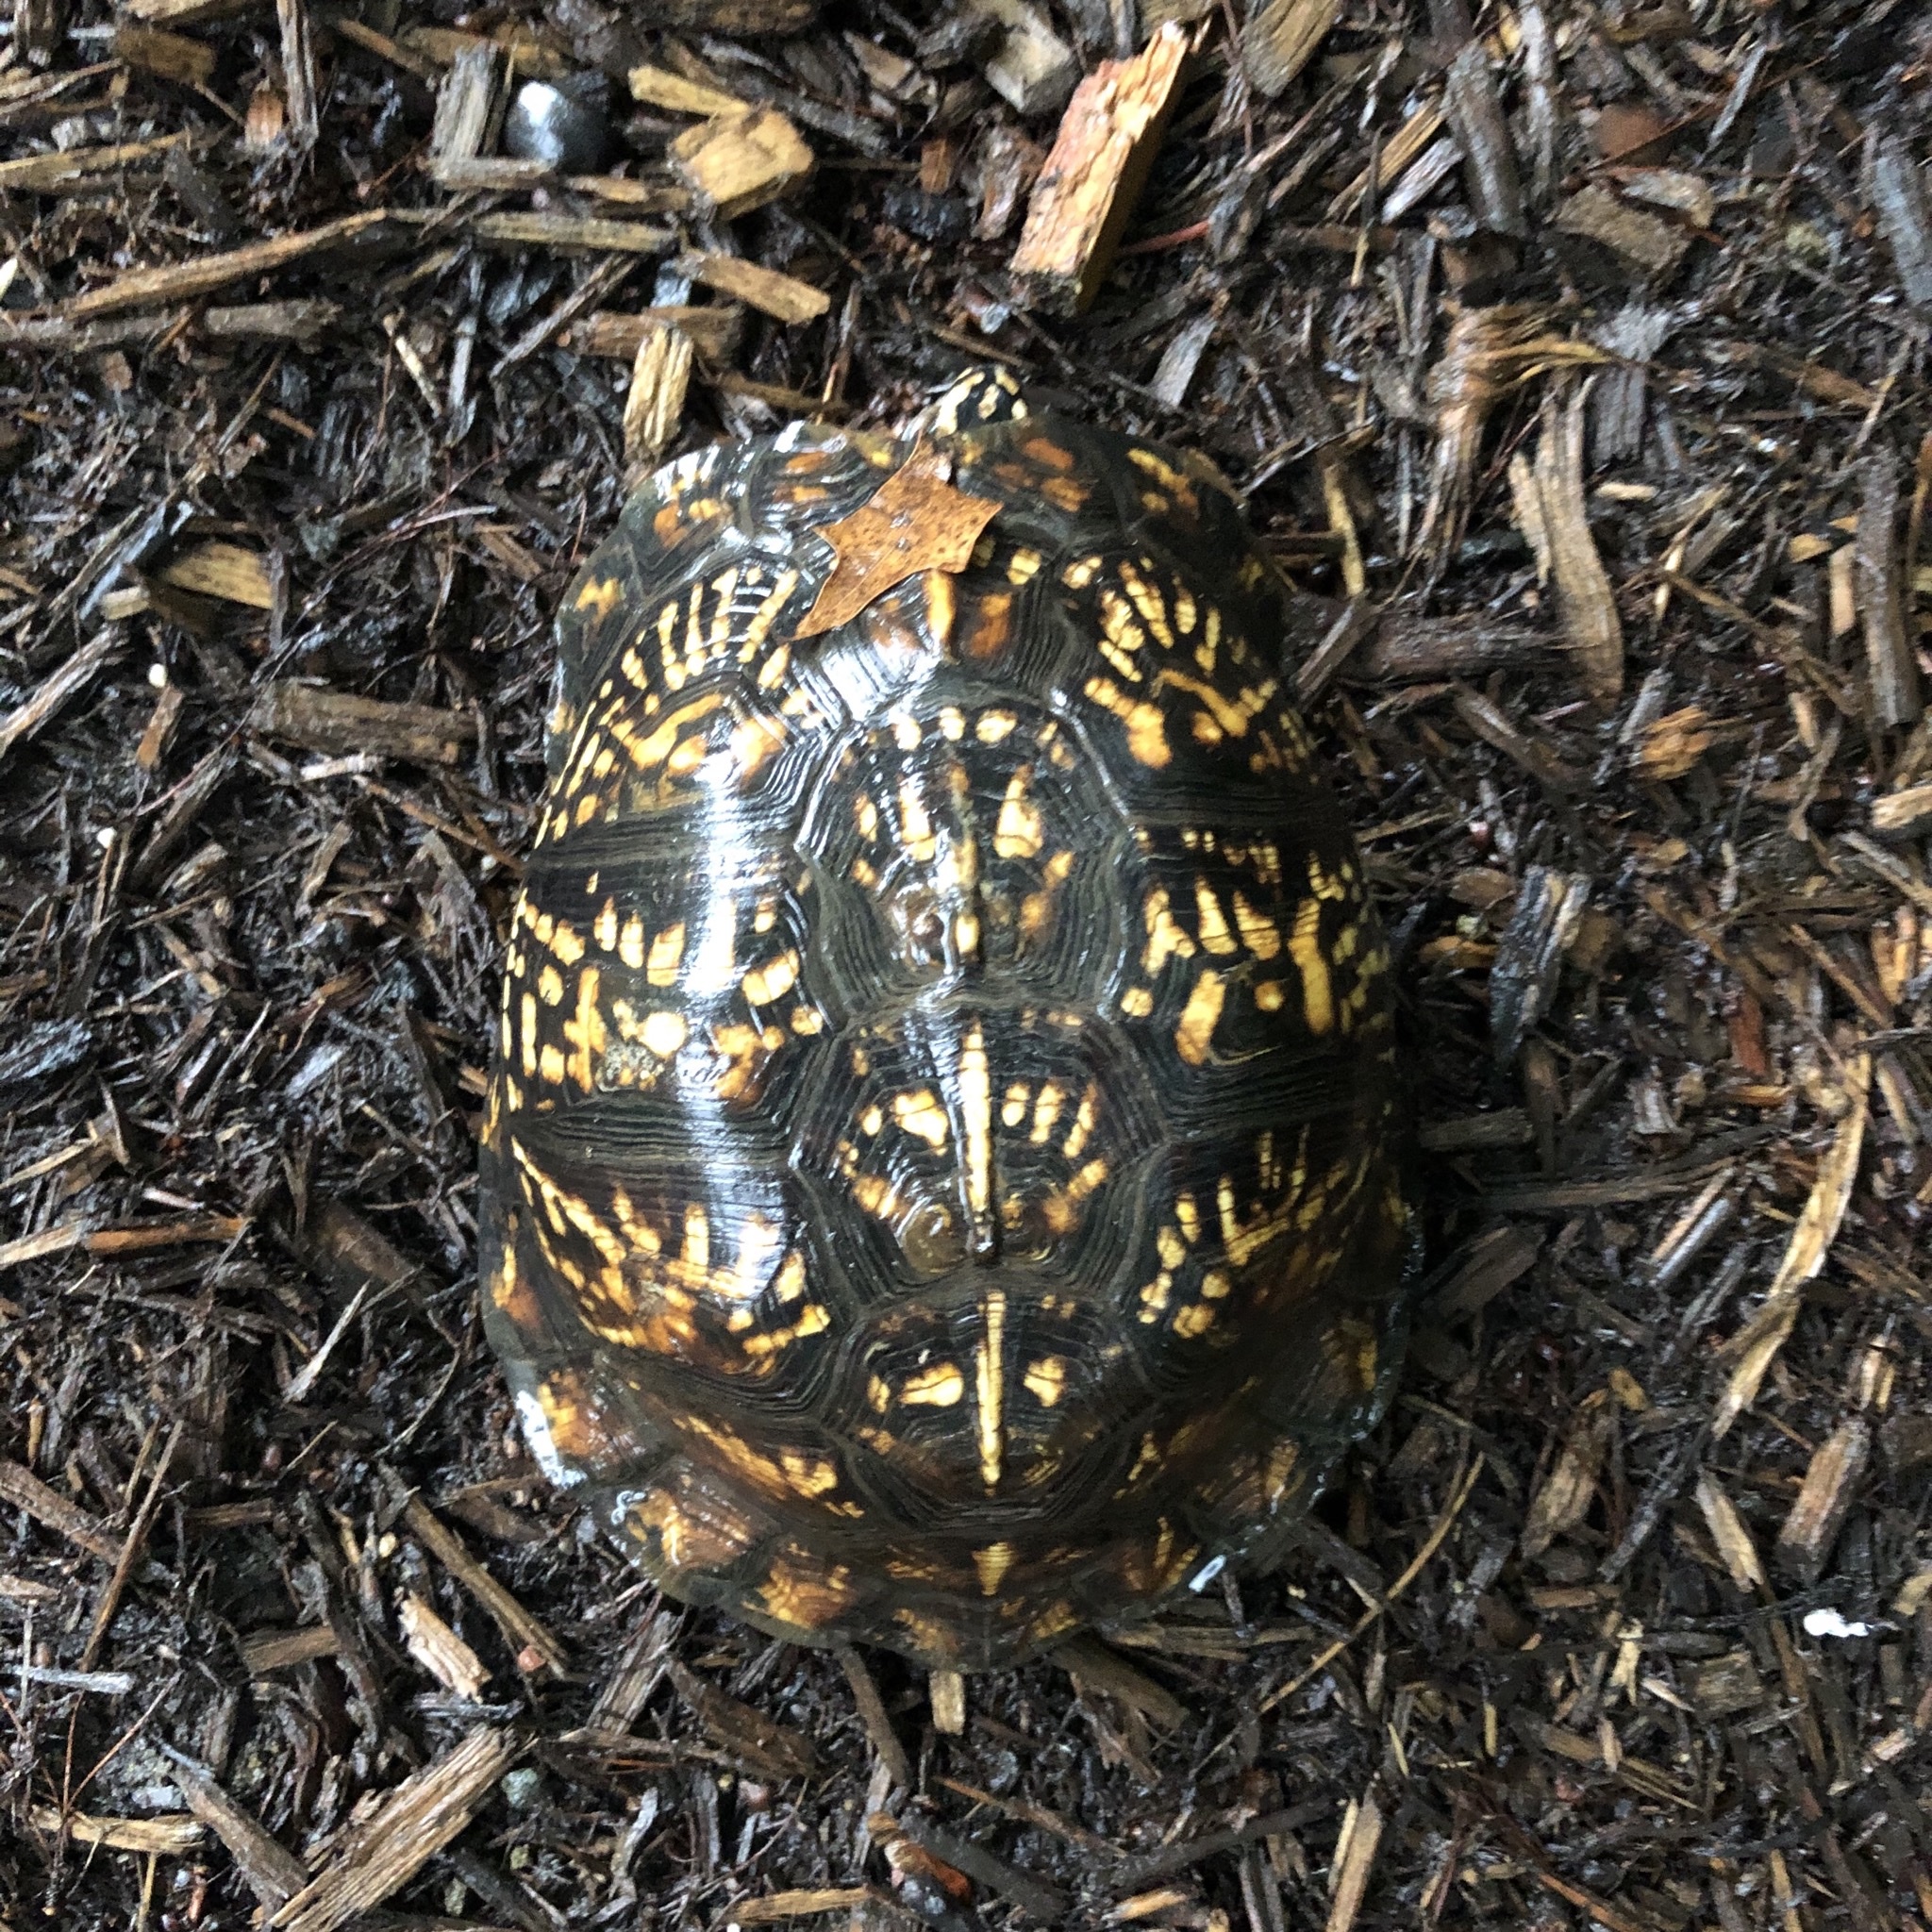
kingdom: Animalia
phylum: Chordata
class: Testudines
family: Emydidae
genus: Terrapene
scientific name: Terrapene carolina
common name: Common box turtle
